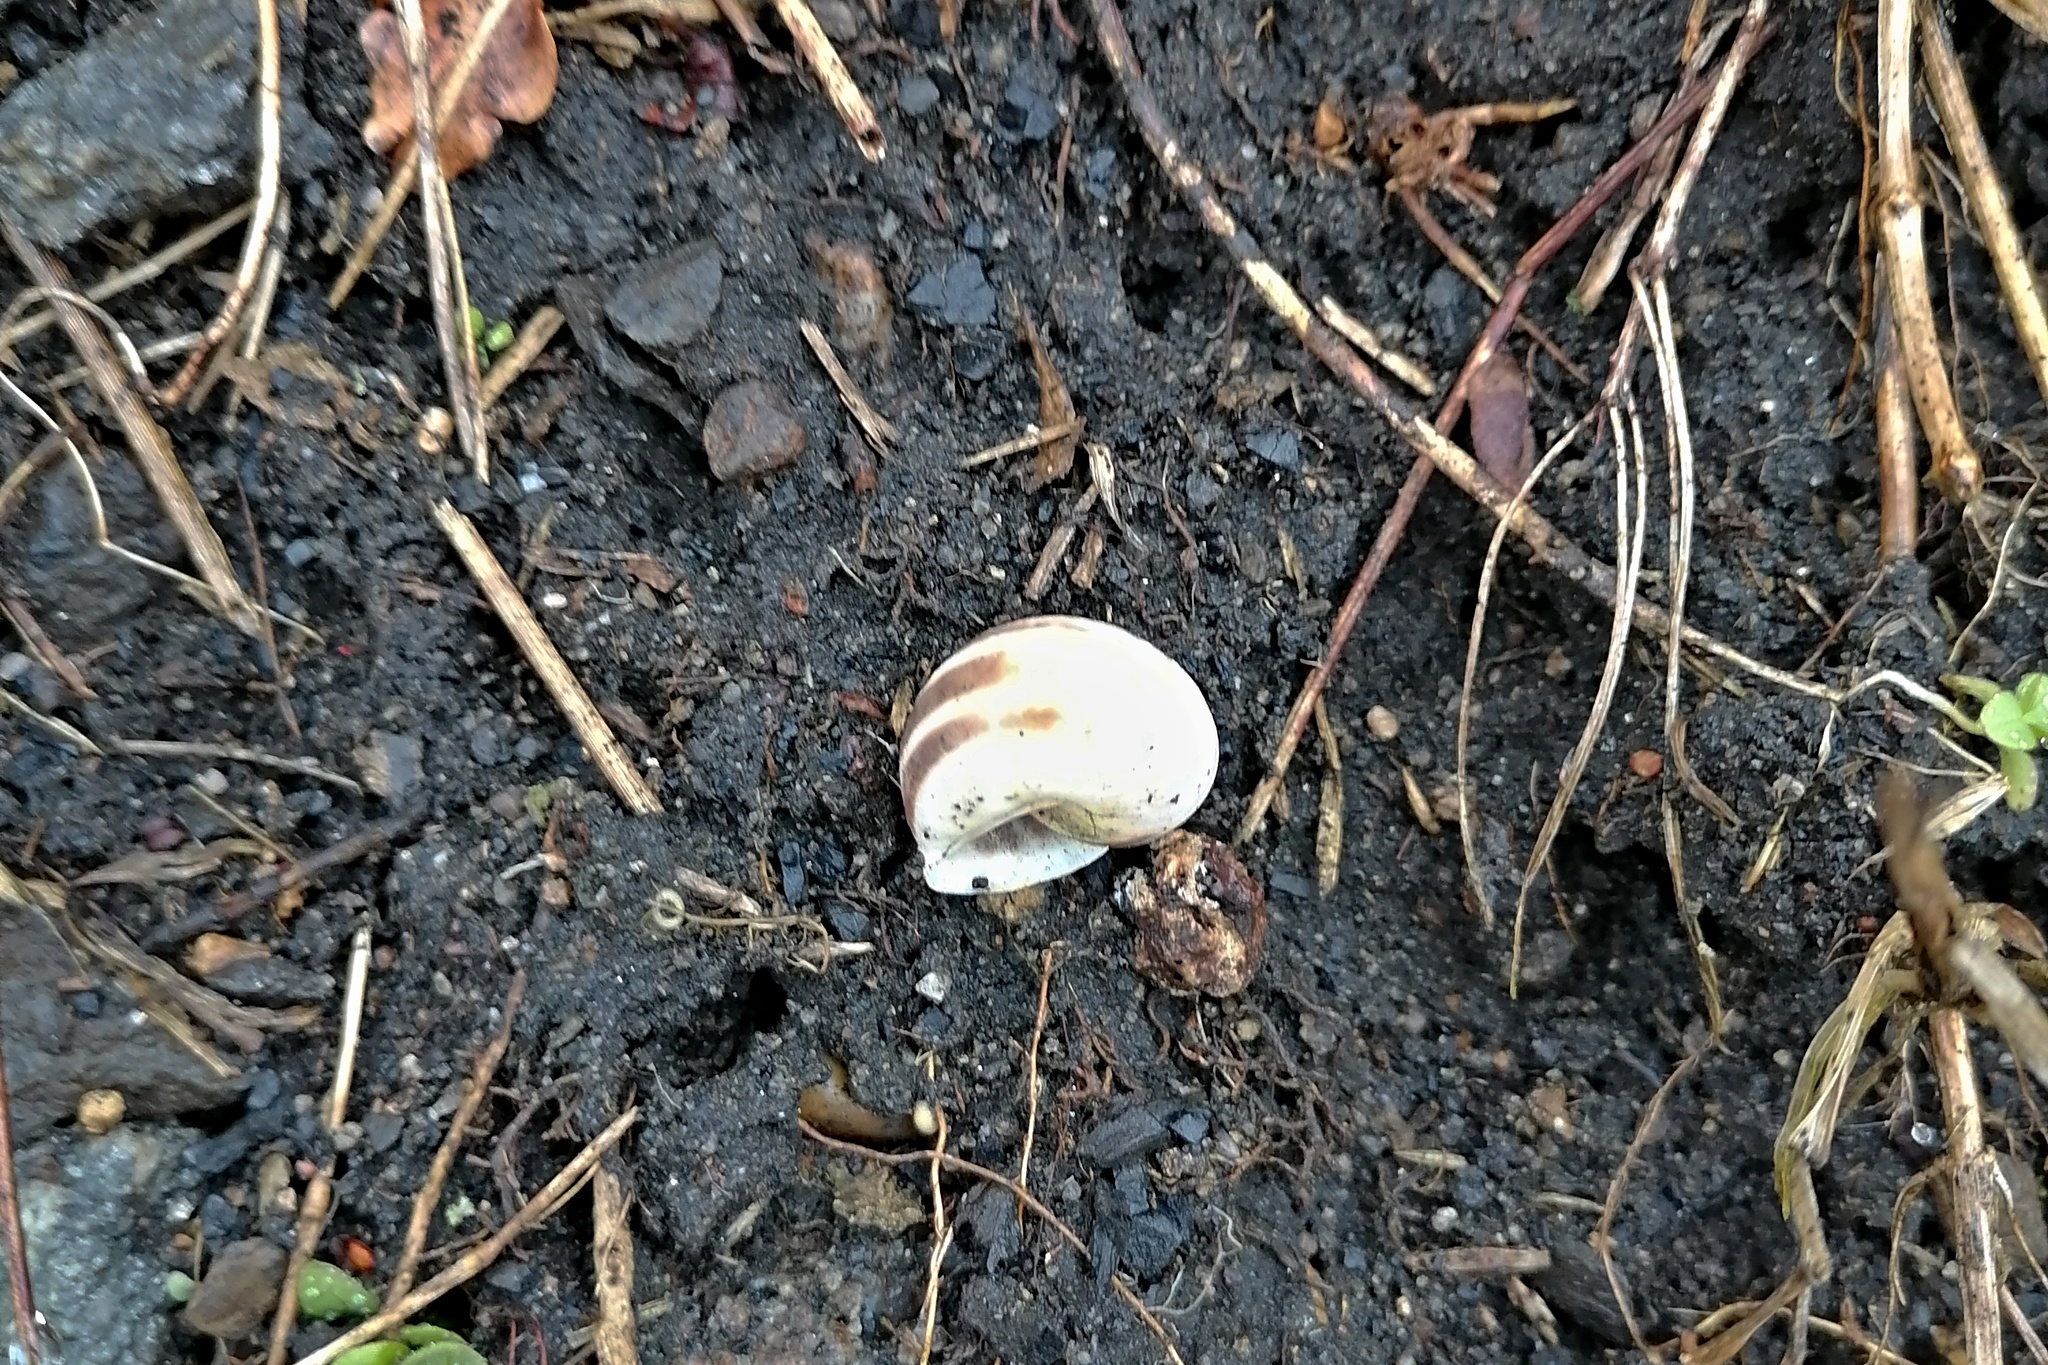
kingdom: Animalia
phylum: Mollusca
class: Gastropoda
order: Stylommatophora
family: Helicidae
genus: Cepaea
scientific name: Cepaea hortensis
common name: White-lip gardensnail
